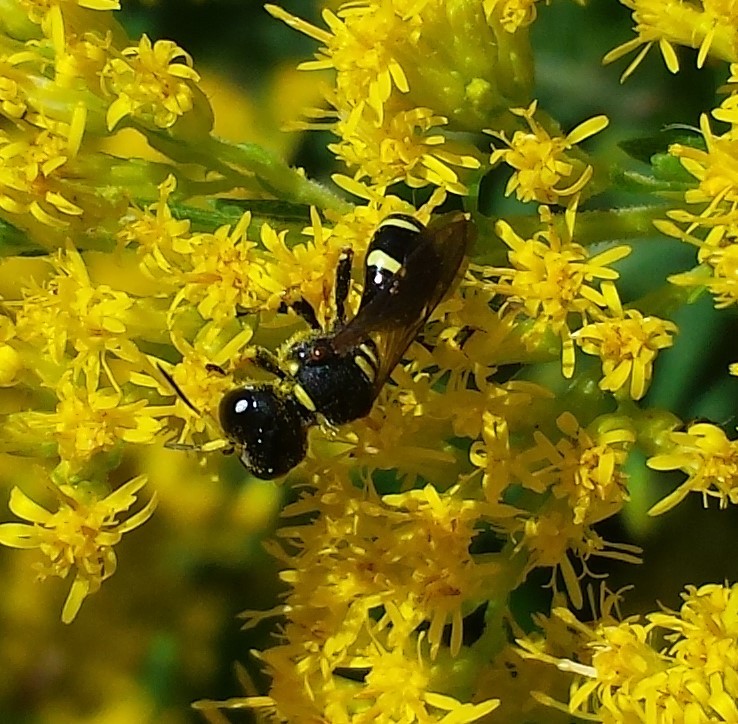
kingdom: Animalia
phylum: Arthropoda
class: Insecta
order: Hymenoptera
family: Crabronidae
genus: Ectemnius
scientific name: Ectemnius continuus
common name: Common ectemnius
